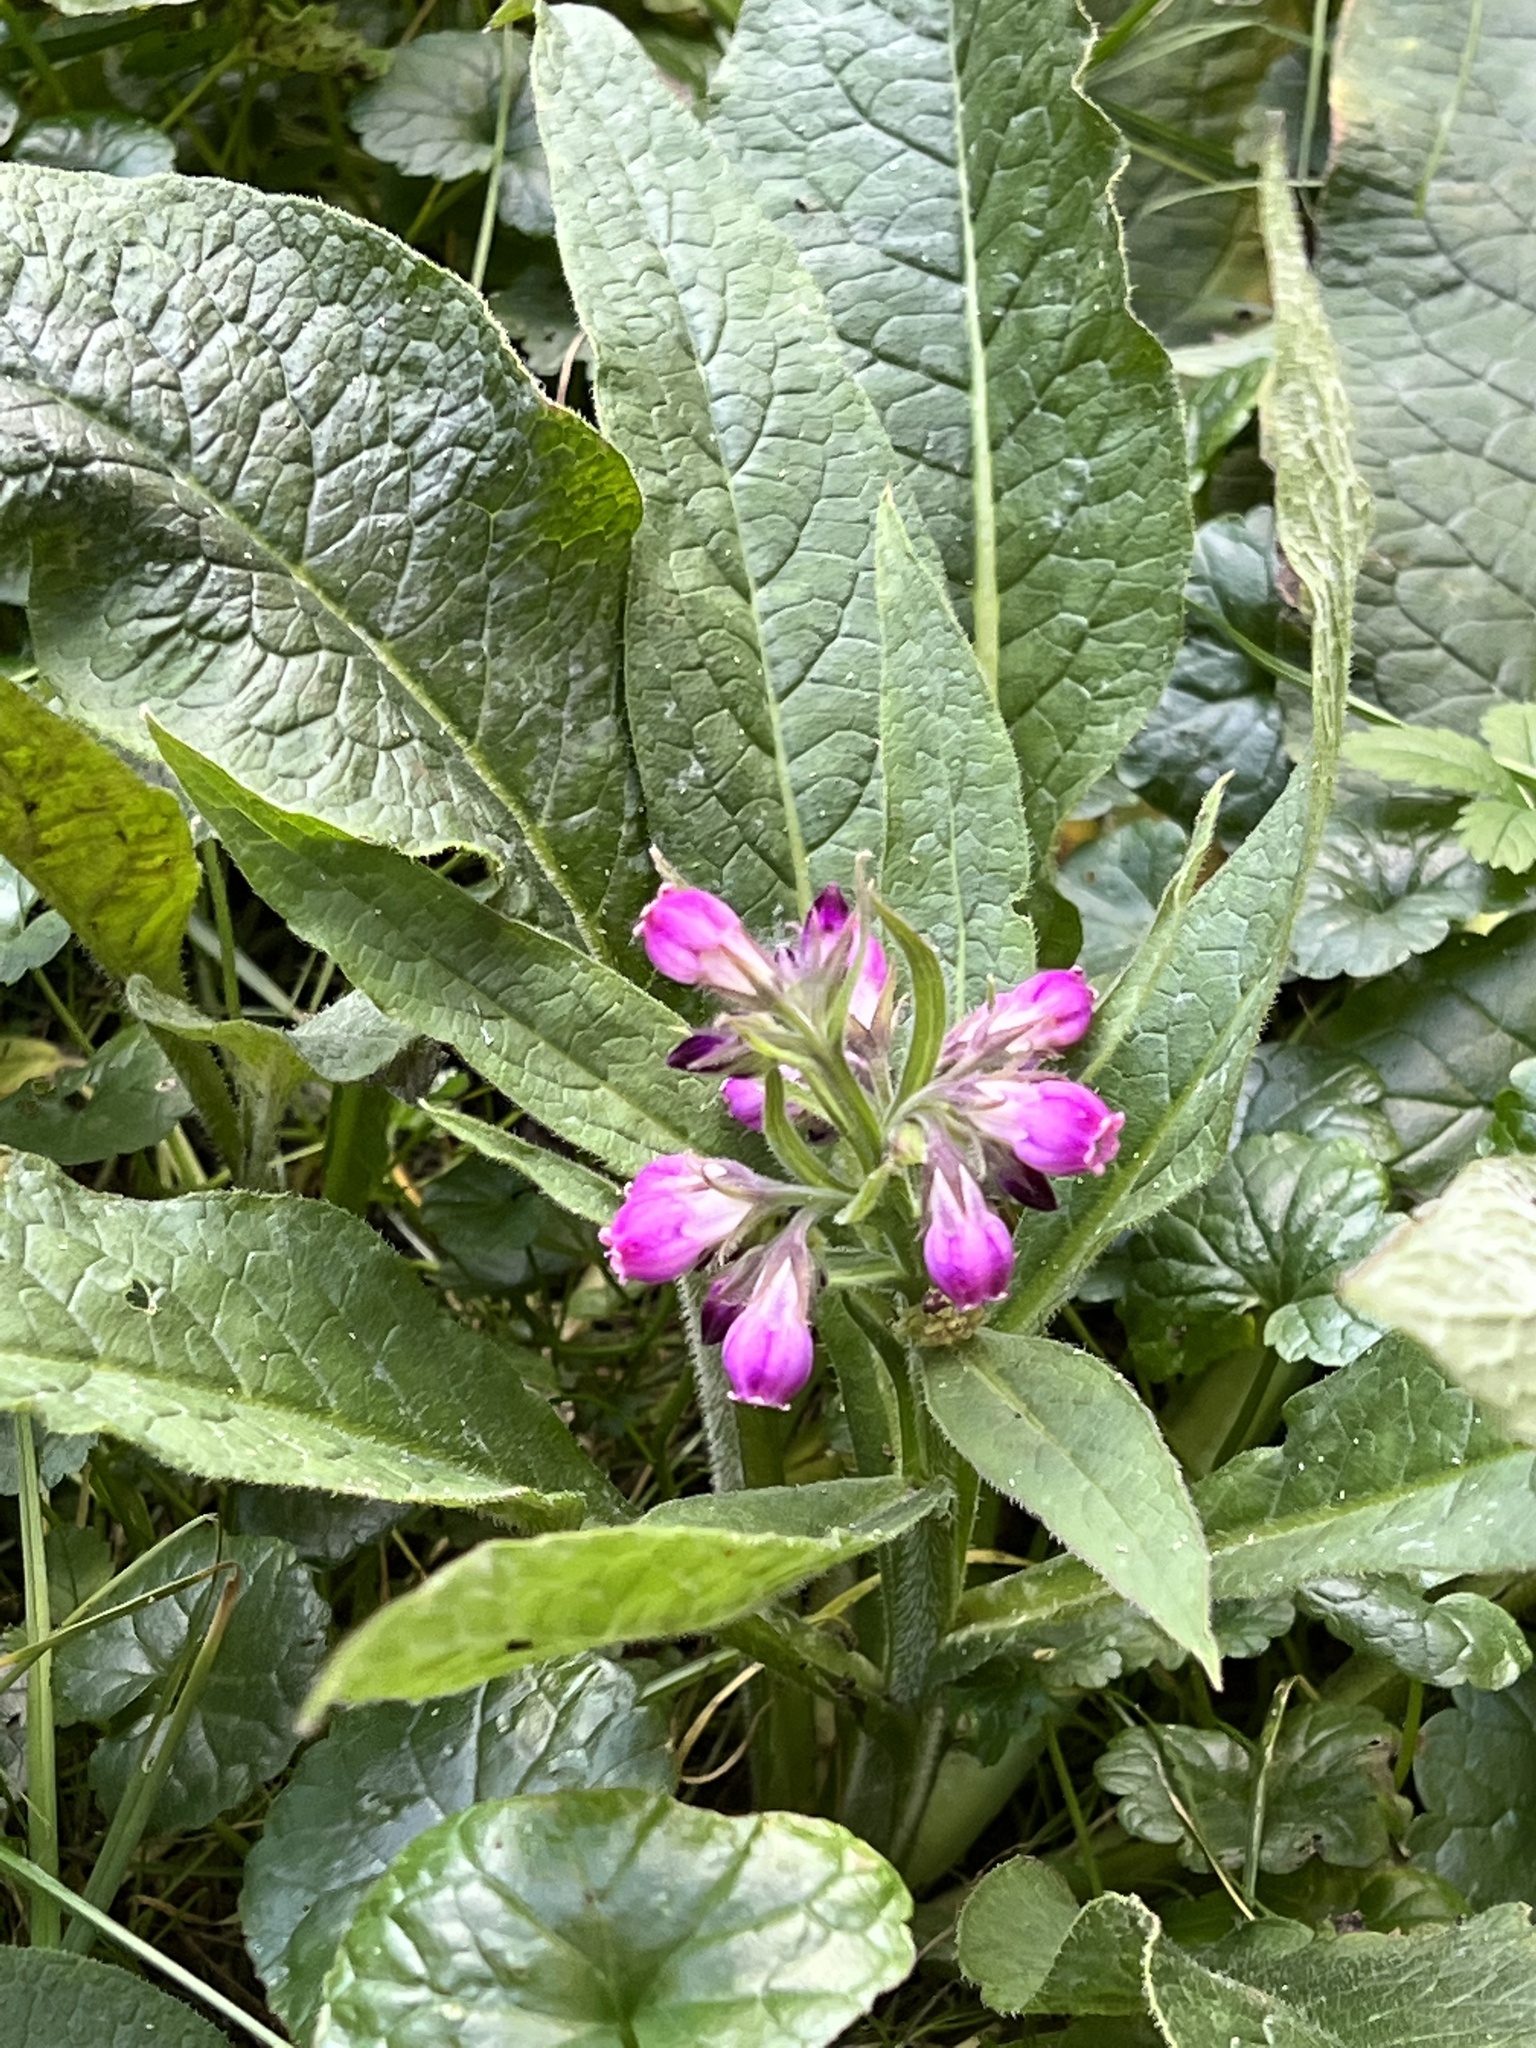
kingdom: Plantae
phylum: Tracheophyta
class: Magnoliopsida
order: Boraginales
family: Boraginaceae
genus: Symphytum
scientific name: Symphytum officinale
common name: Common comfrey
